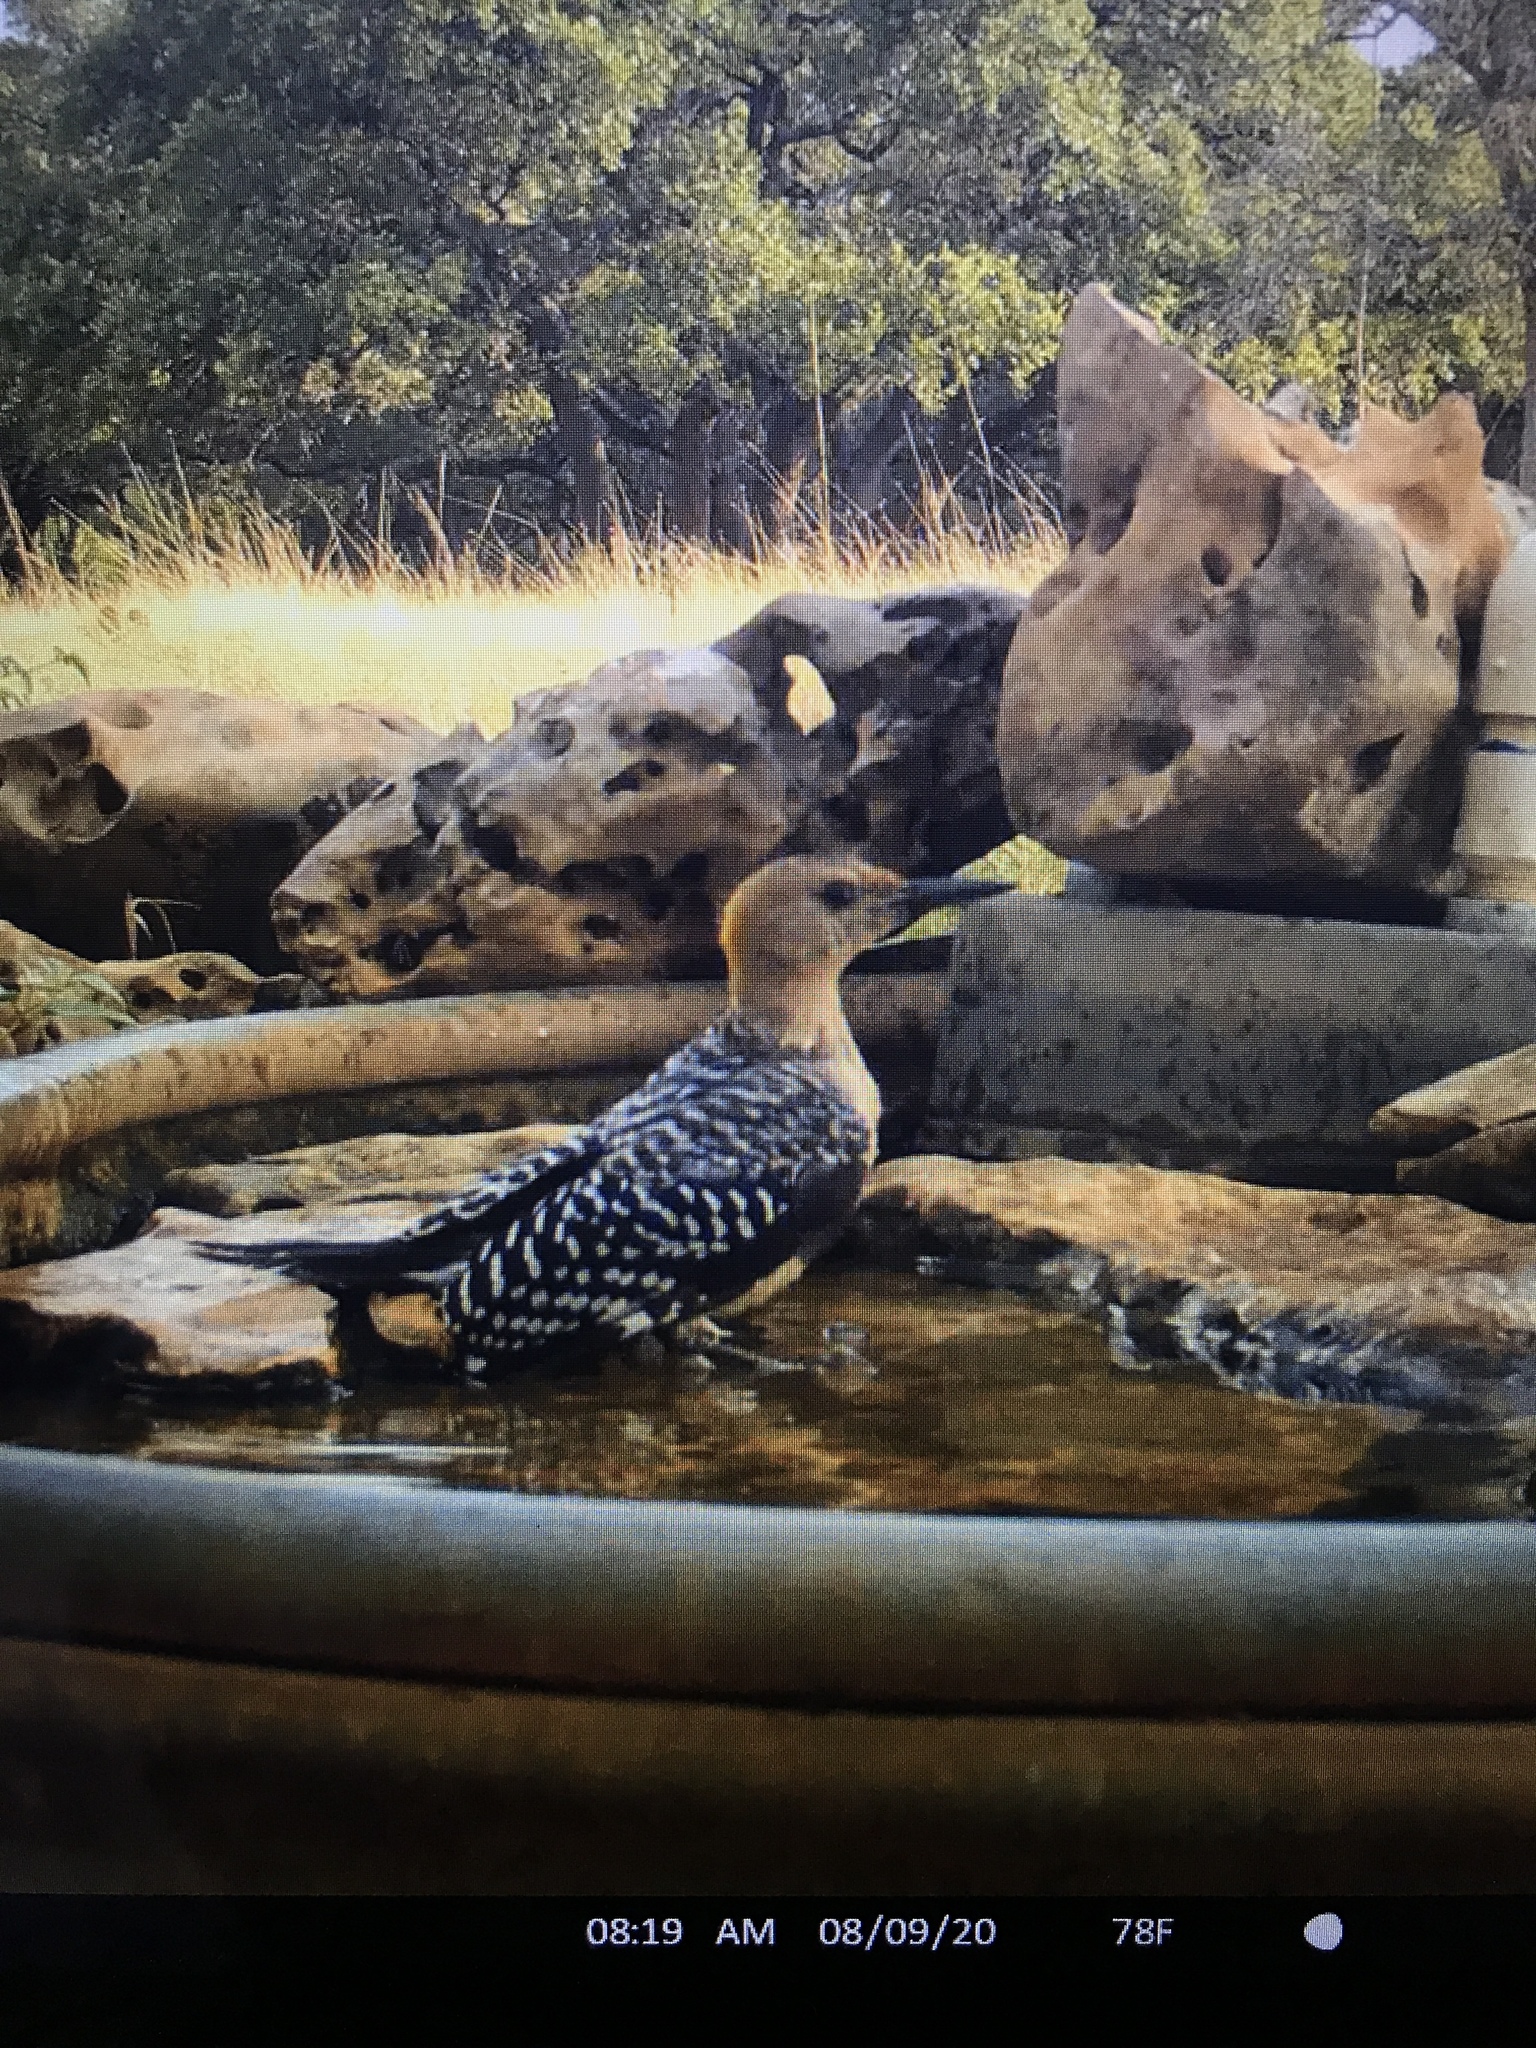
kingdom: Animalia
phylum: Chordata
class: Aves
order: Piciformes
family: Picidae
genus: Melanerpes
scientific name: Melanerpes aurifrons
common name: Golden-fronted woodpecker
